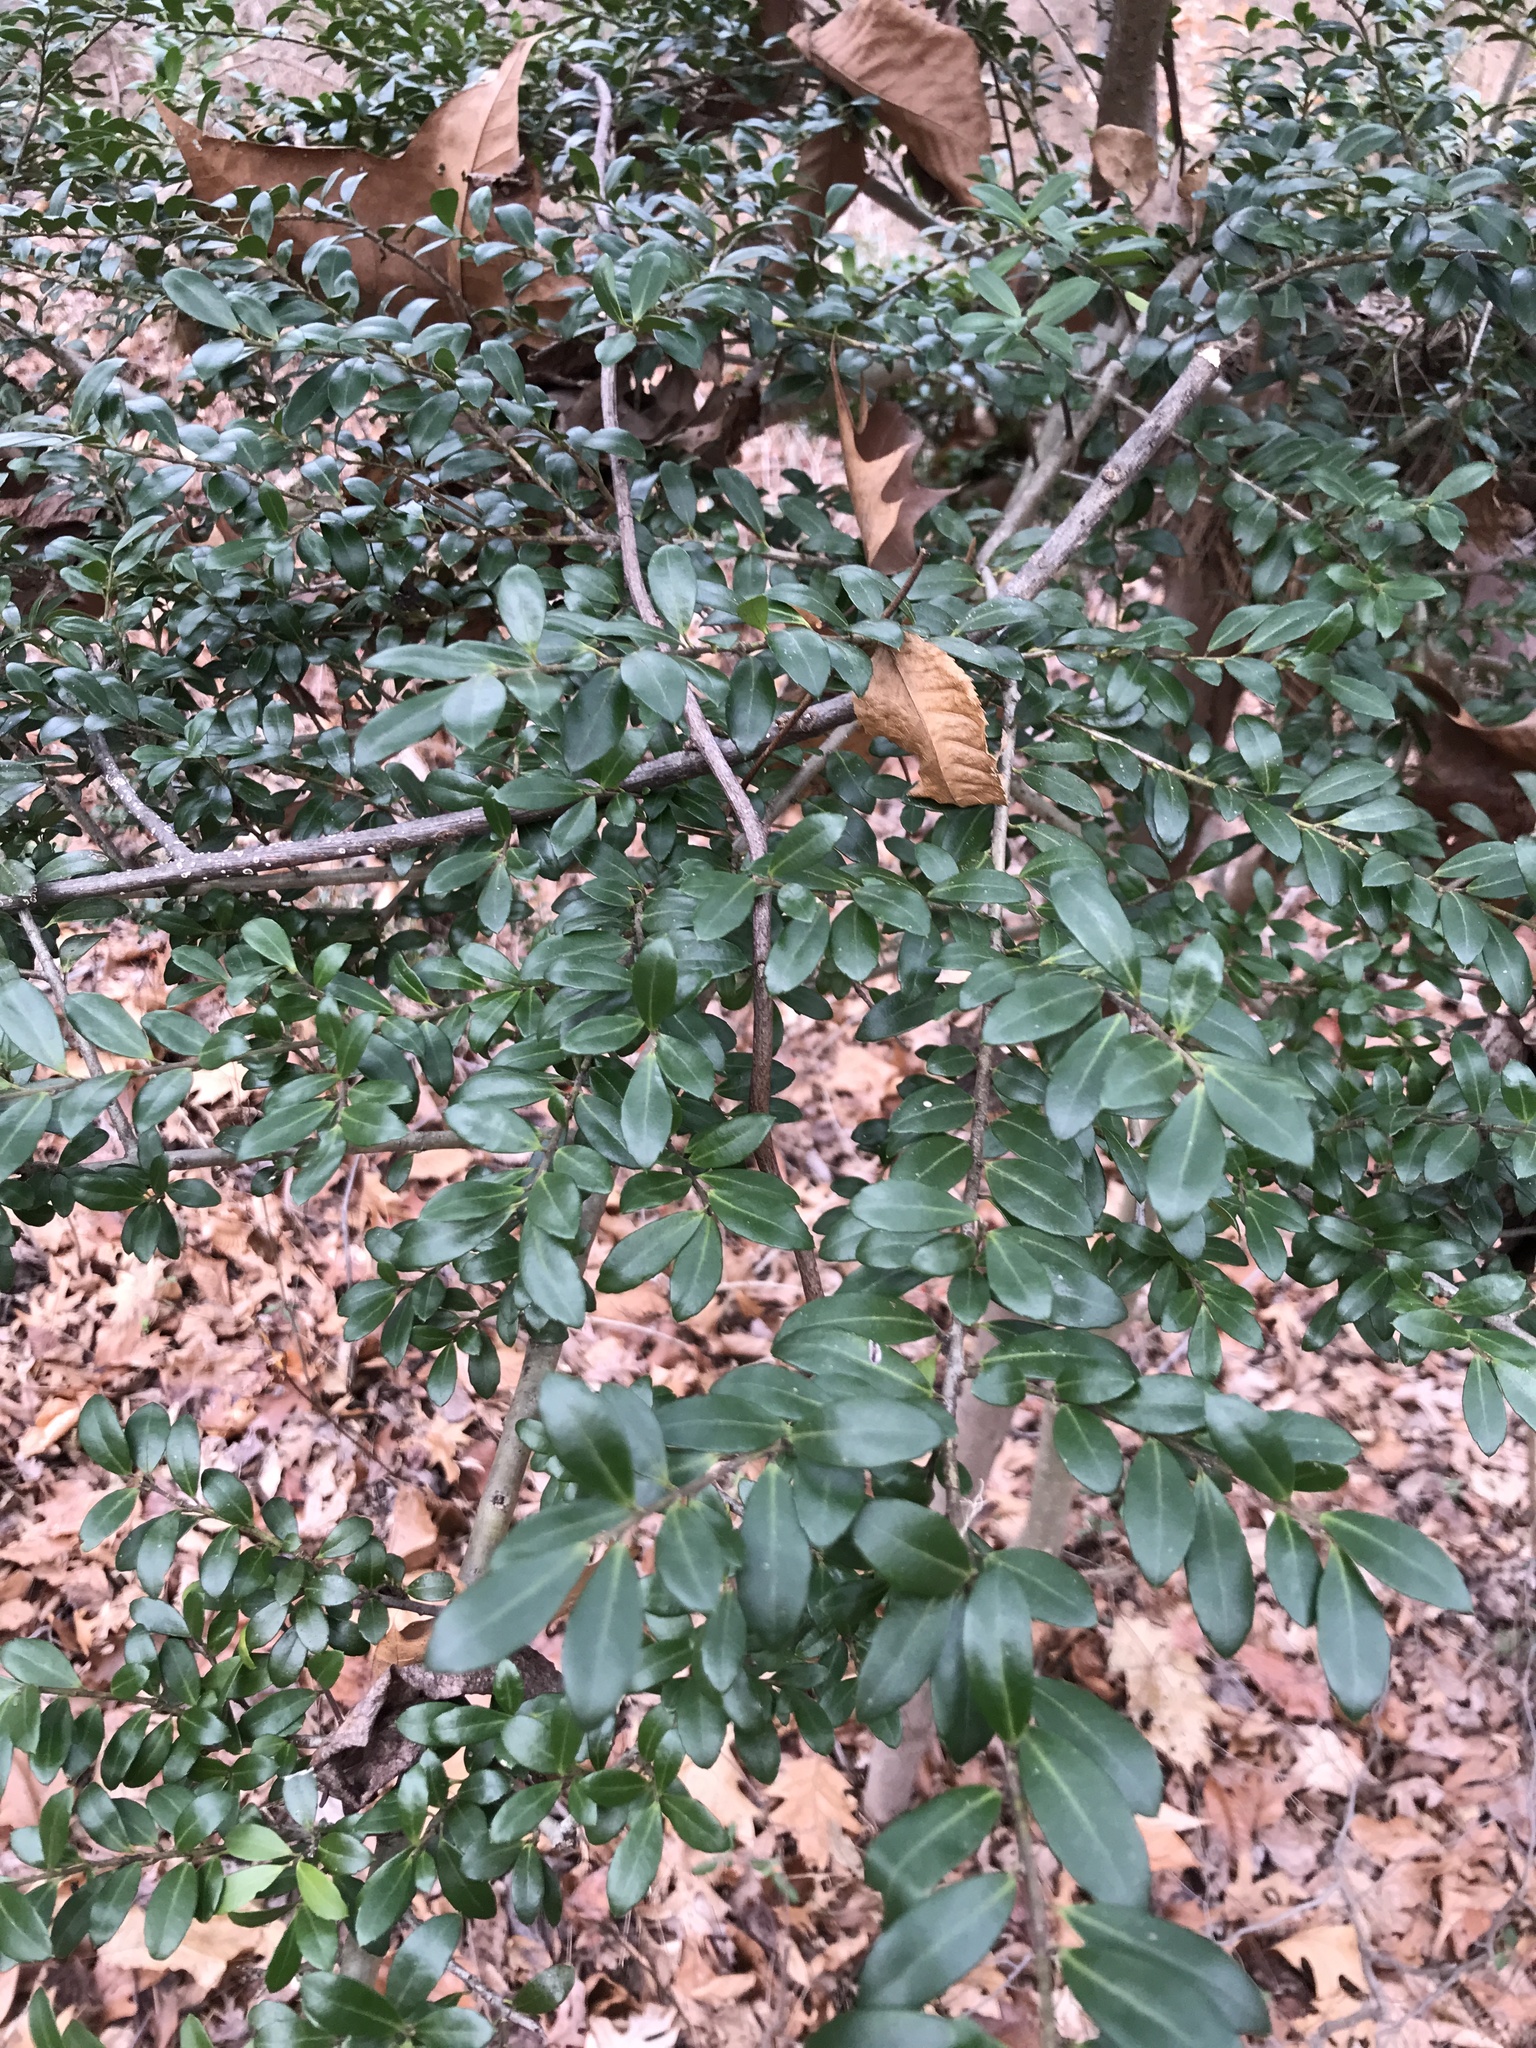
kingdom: Plantae
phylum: Tracheophyta
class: Magnoliopsida
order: Aquifoliales
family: Aquifoliaceae
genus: Ilex
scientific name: Ilex crenata
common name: Japanese holly
